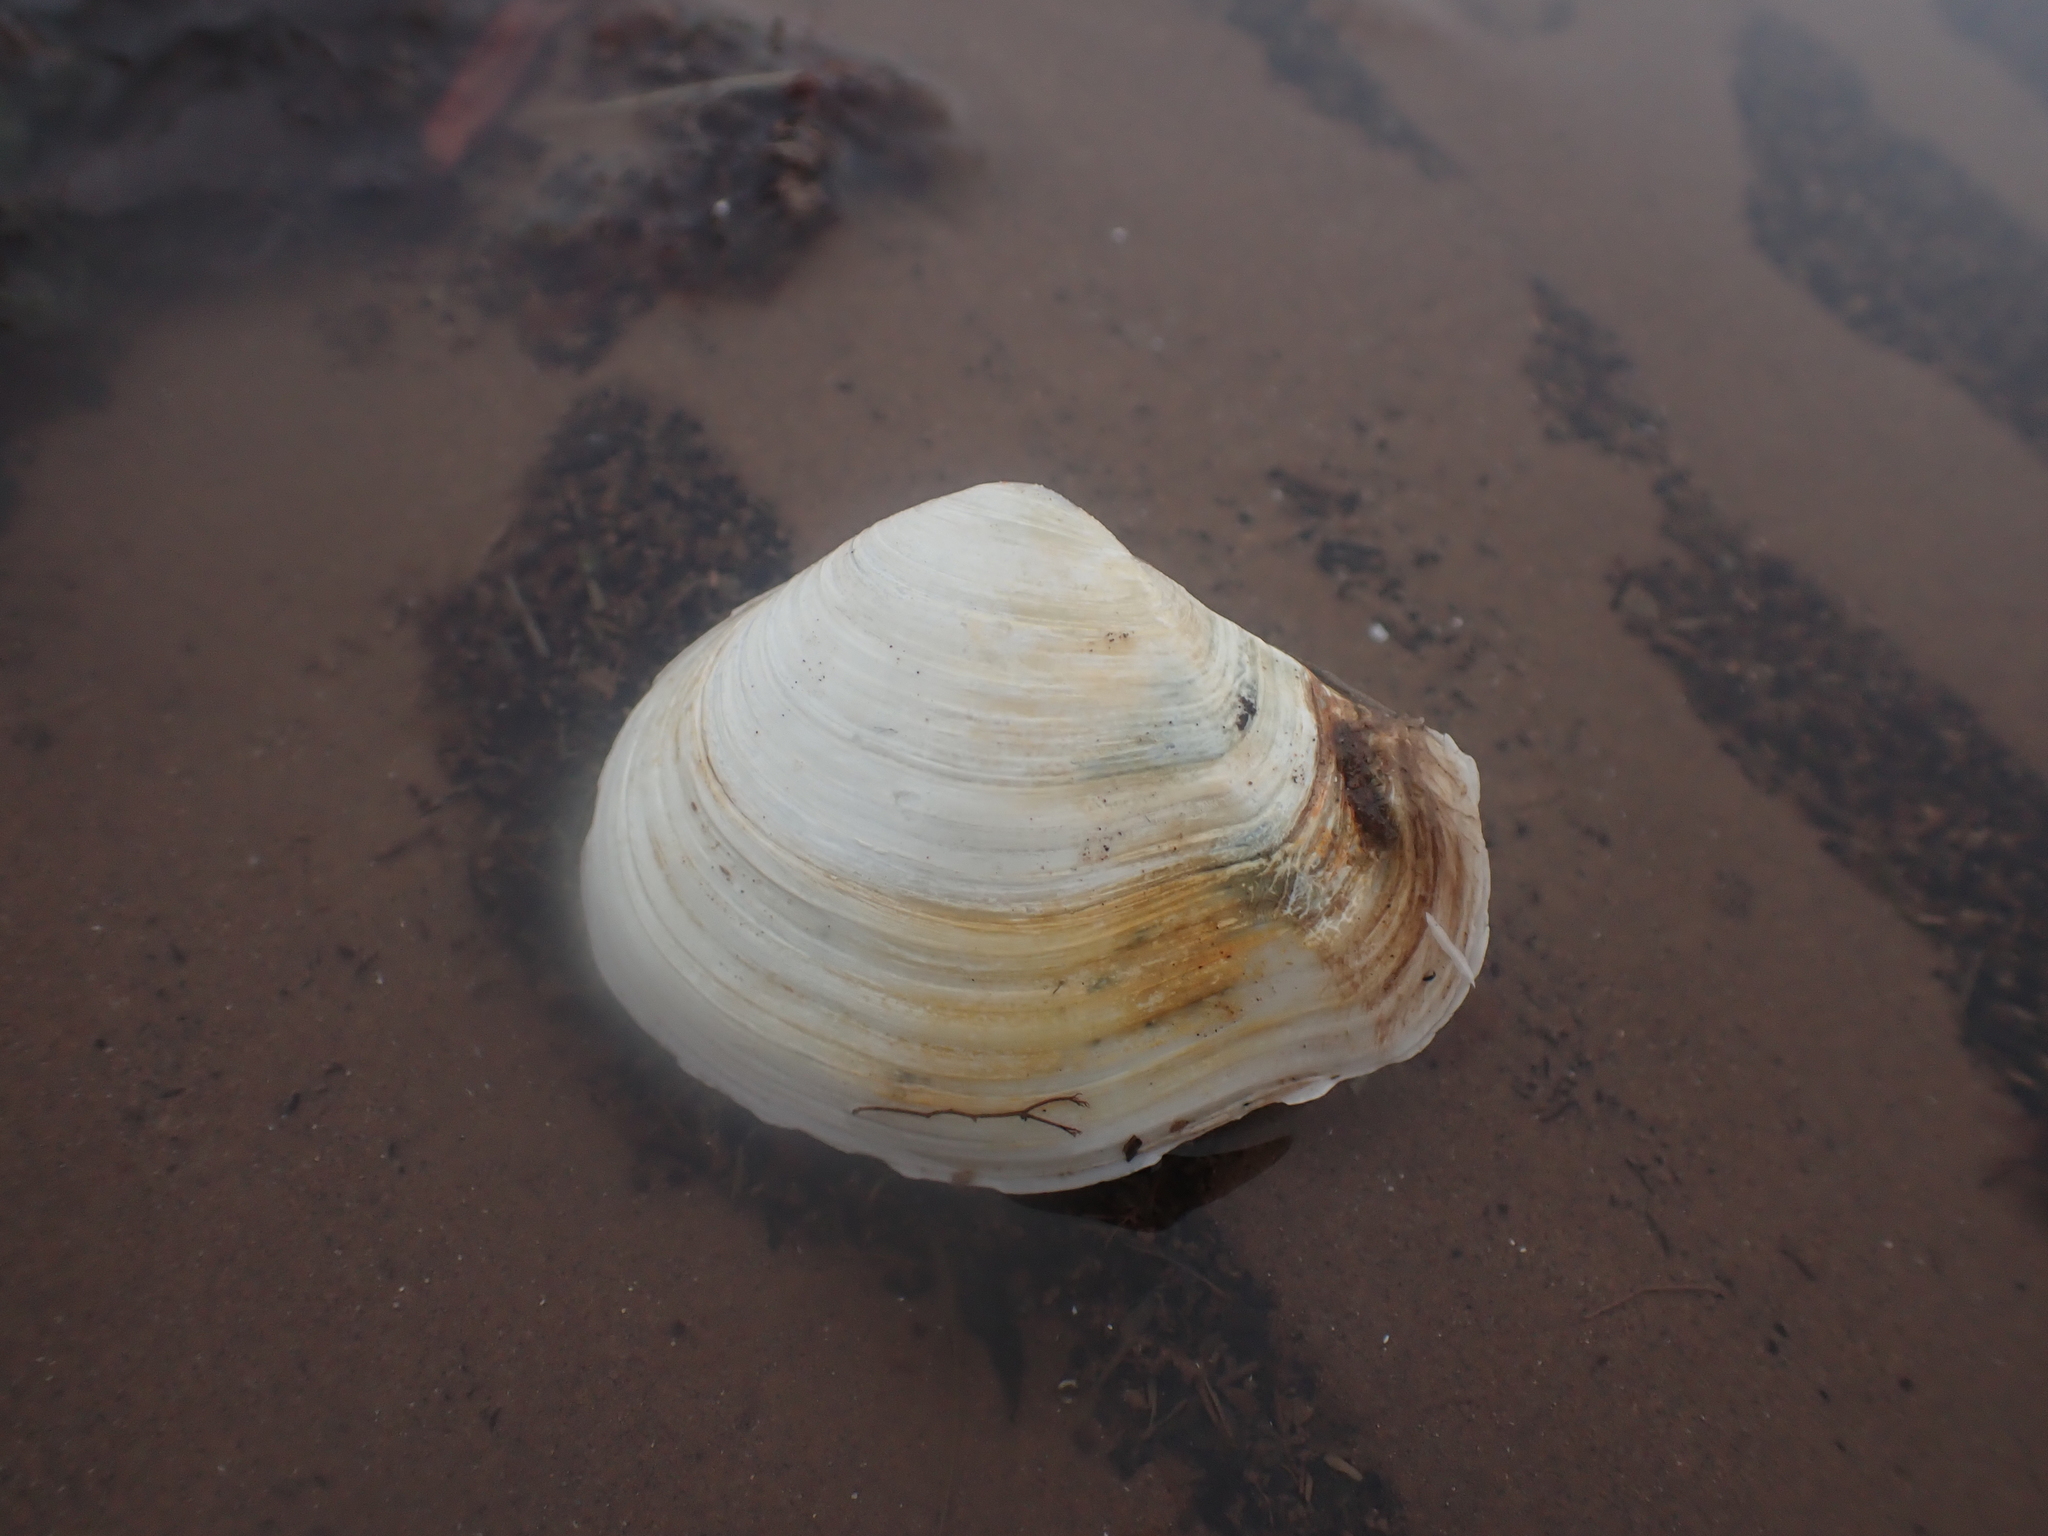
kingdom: Animalia
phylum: Mollusca
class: Bivalvia
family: Thraciidae
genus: Thracia
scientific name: Thracia conradi
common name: Conrad thracia
